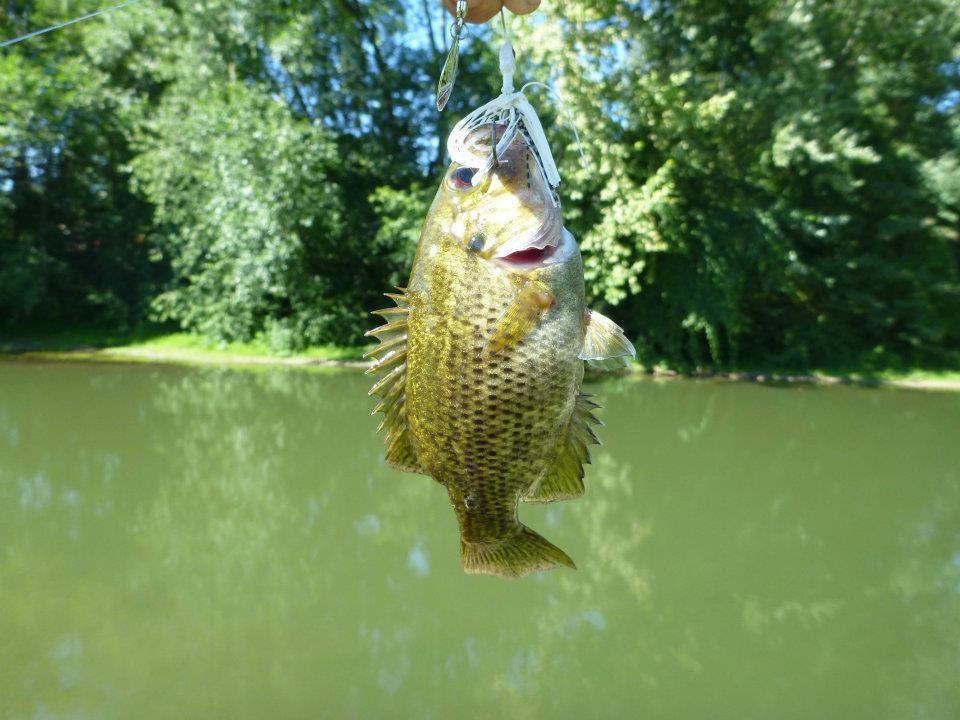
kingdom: Animalia
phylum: Chordata
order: Perciformes
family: Centrarchidae
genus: Ambloplites
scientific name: Ambloplites rupestris
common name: Rock bass
